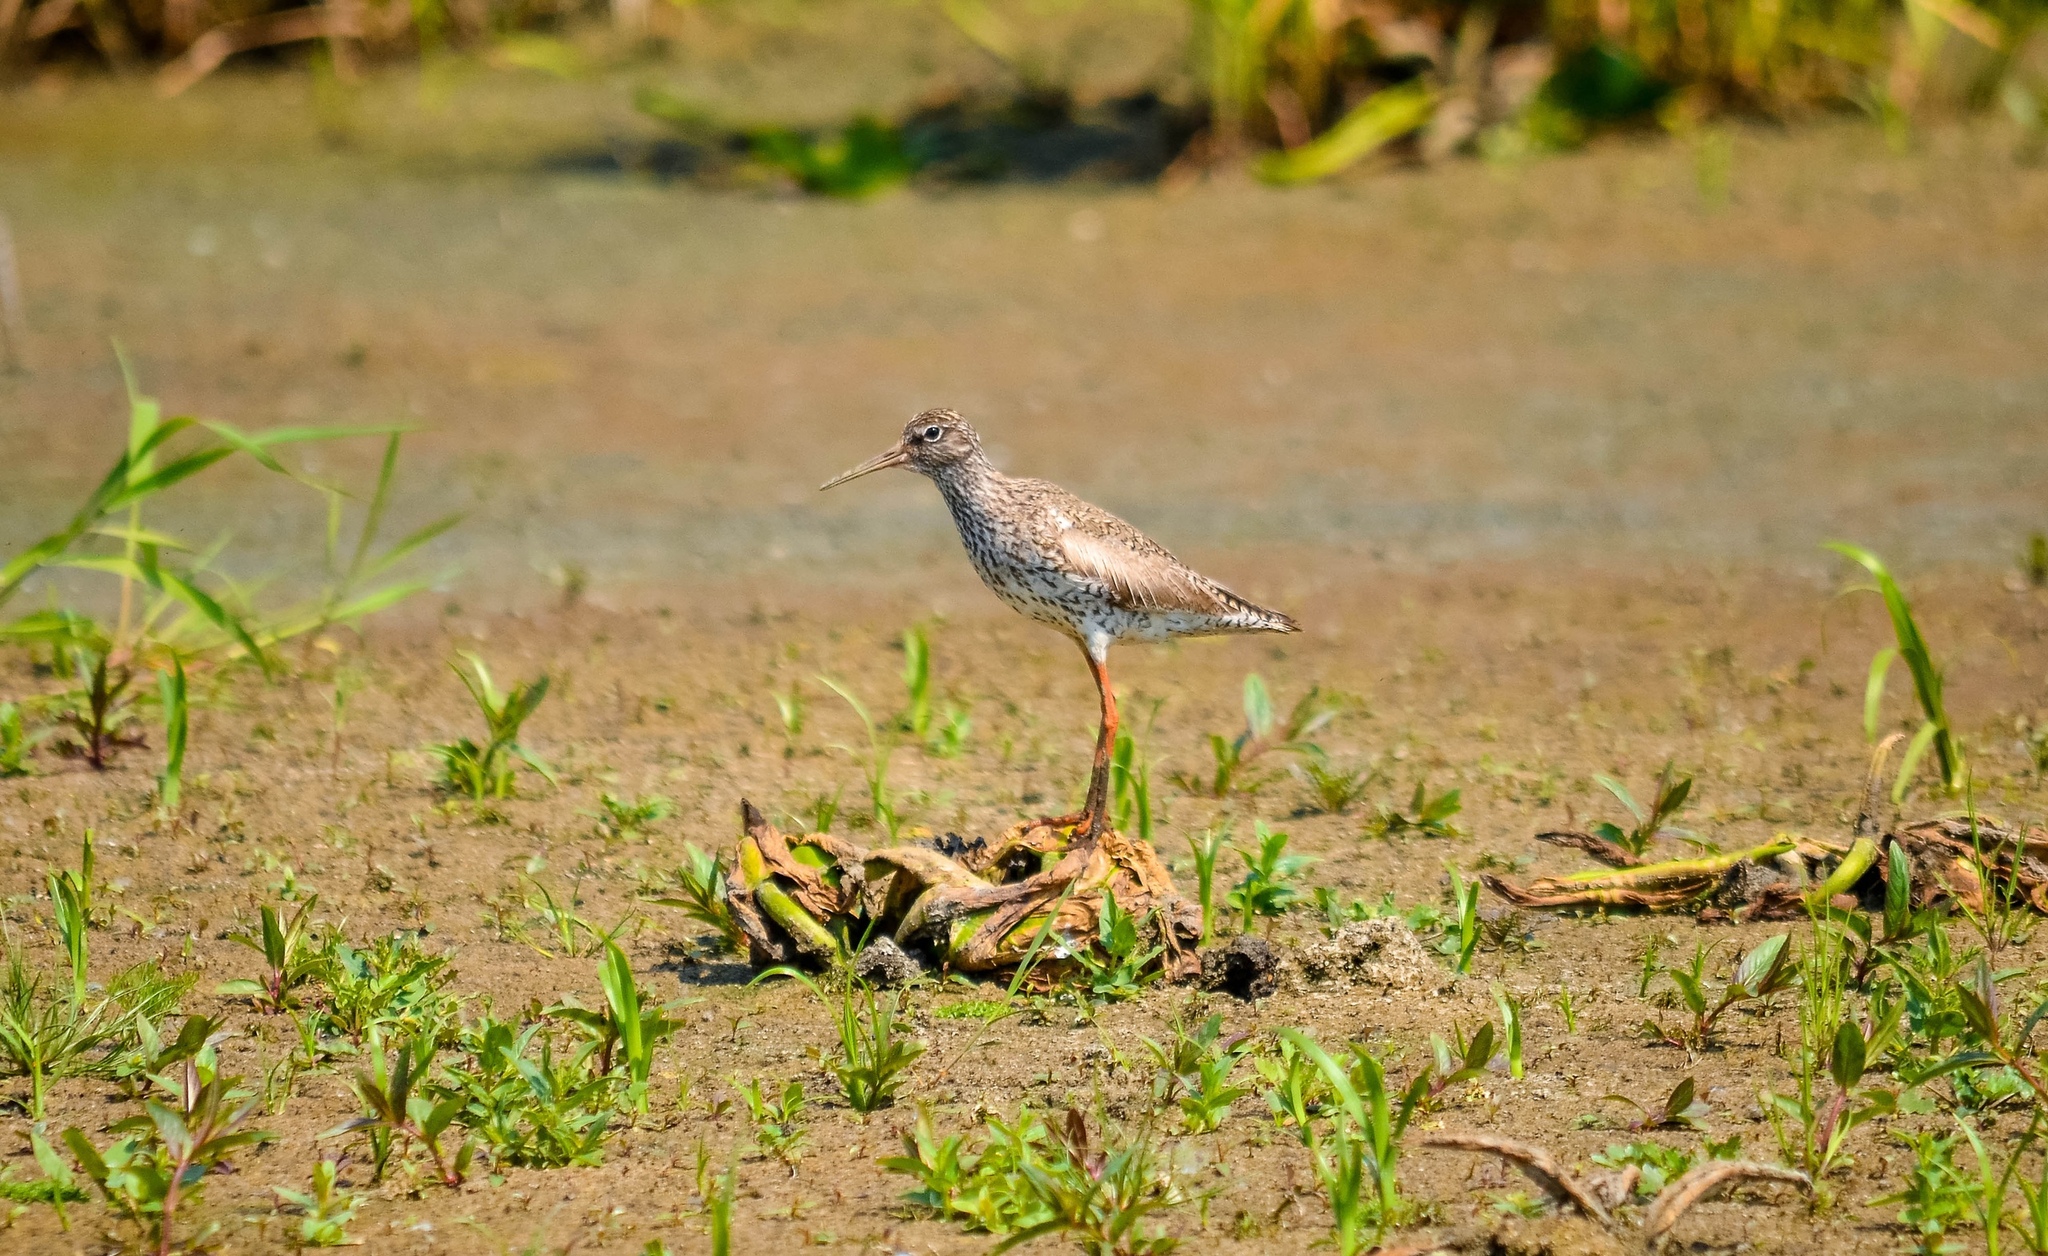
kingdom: Animalia
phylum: Chordata
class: Aves
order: Charadriiformes
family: Scolopacidae
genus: Tringa
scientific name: Tringa totanus
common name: Common redshank
